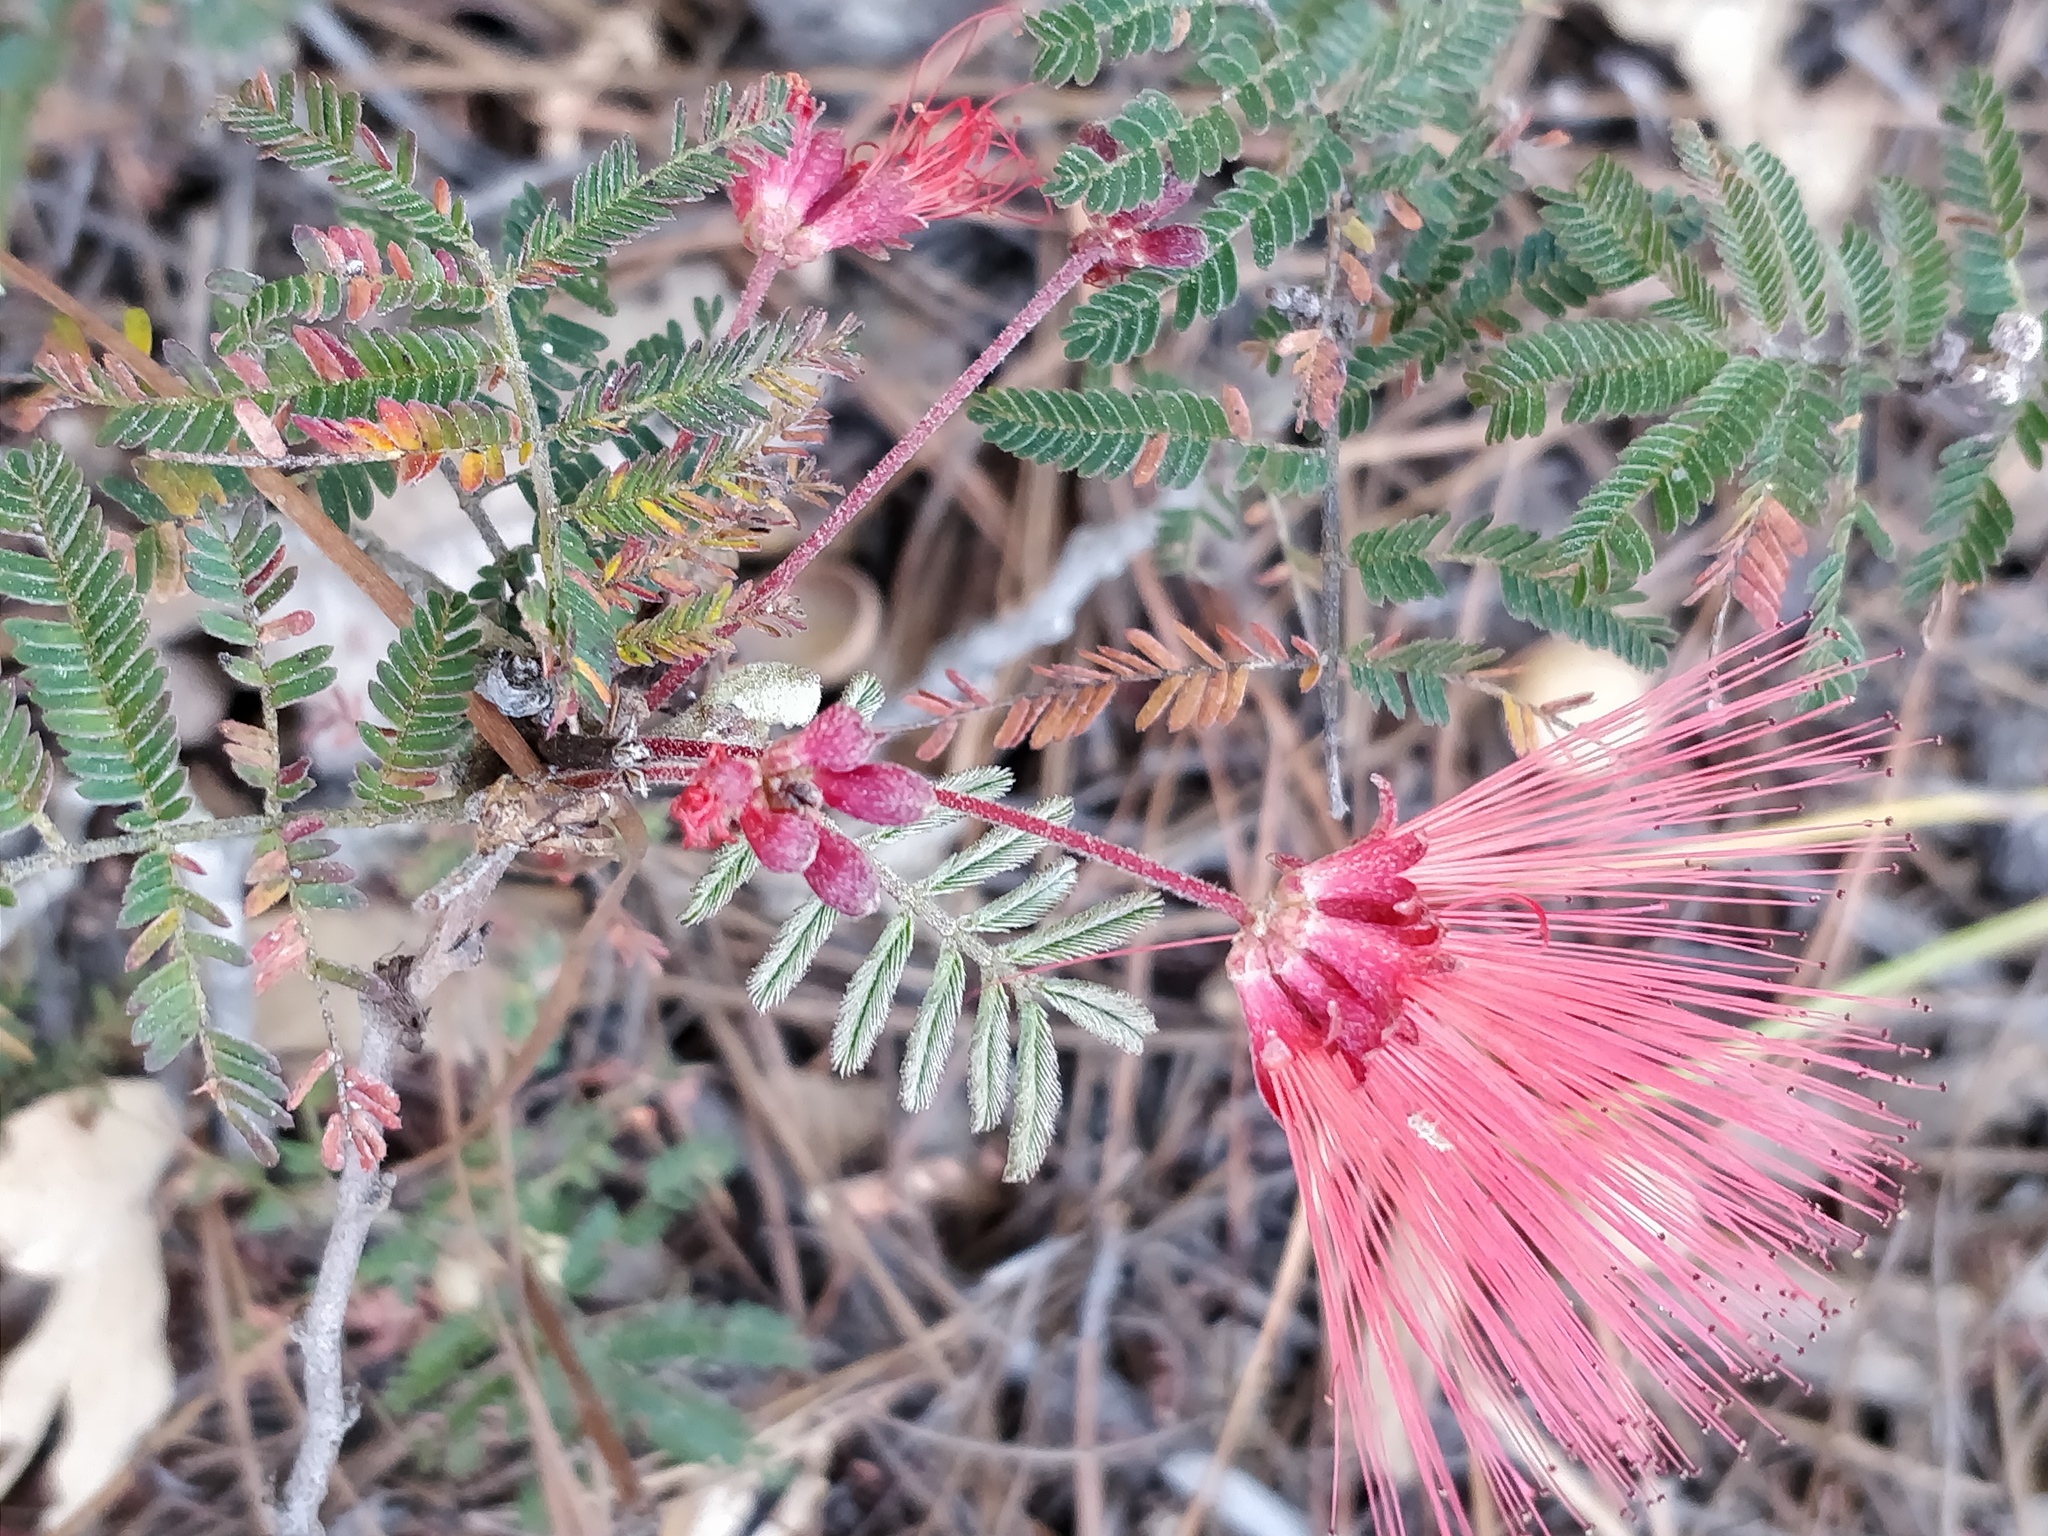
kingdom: Plantae
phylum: Tracheophyta
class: Magnoliopsida
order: Fabales
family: Fabaceae
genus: Calliandra
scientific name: Calliandra eriophylla
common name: Fairy-duster
